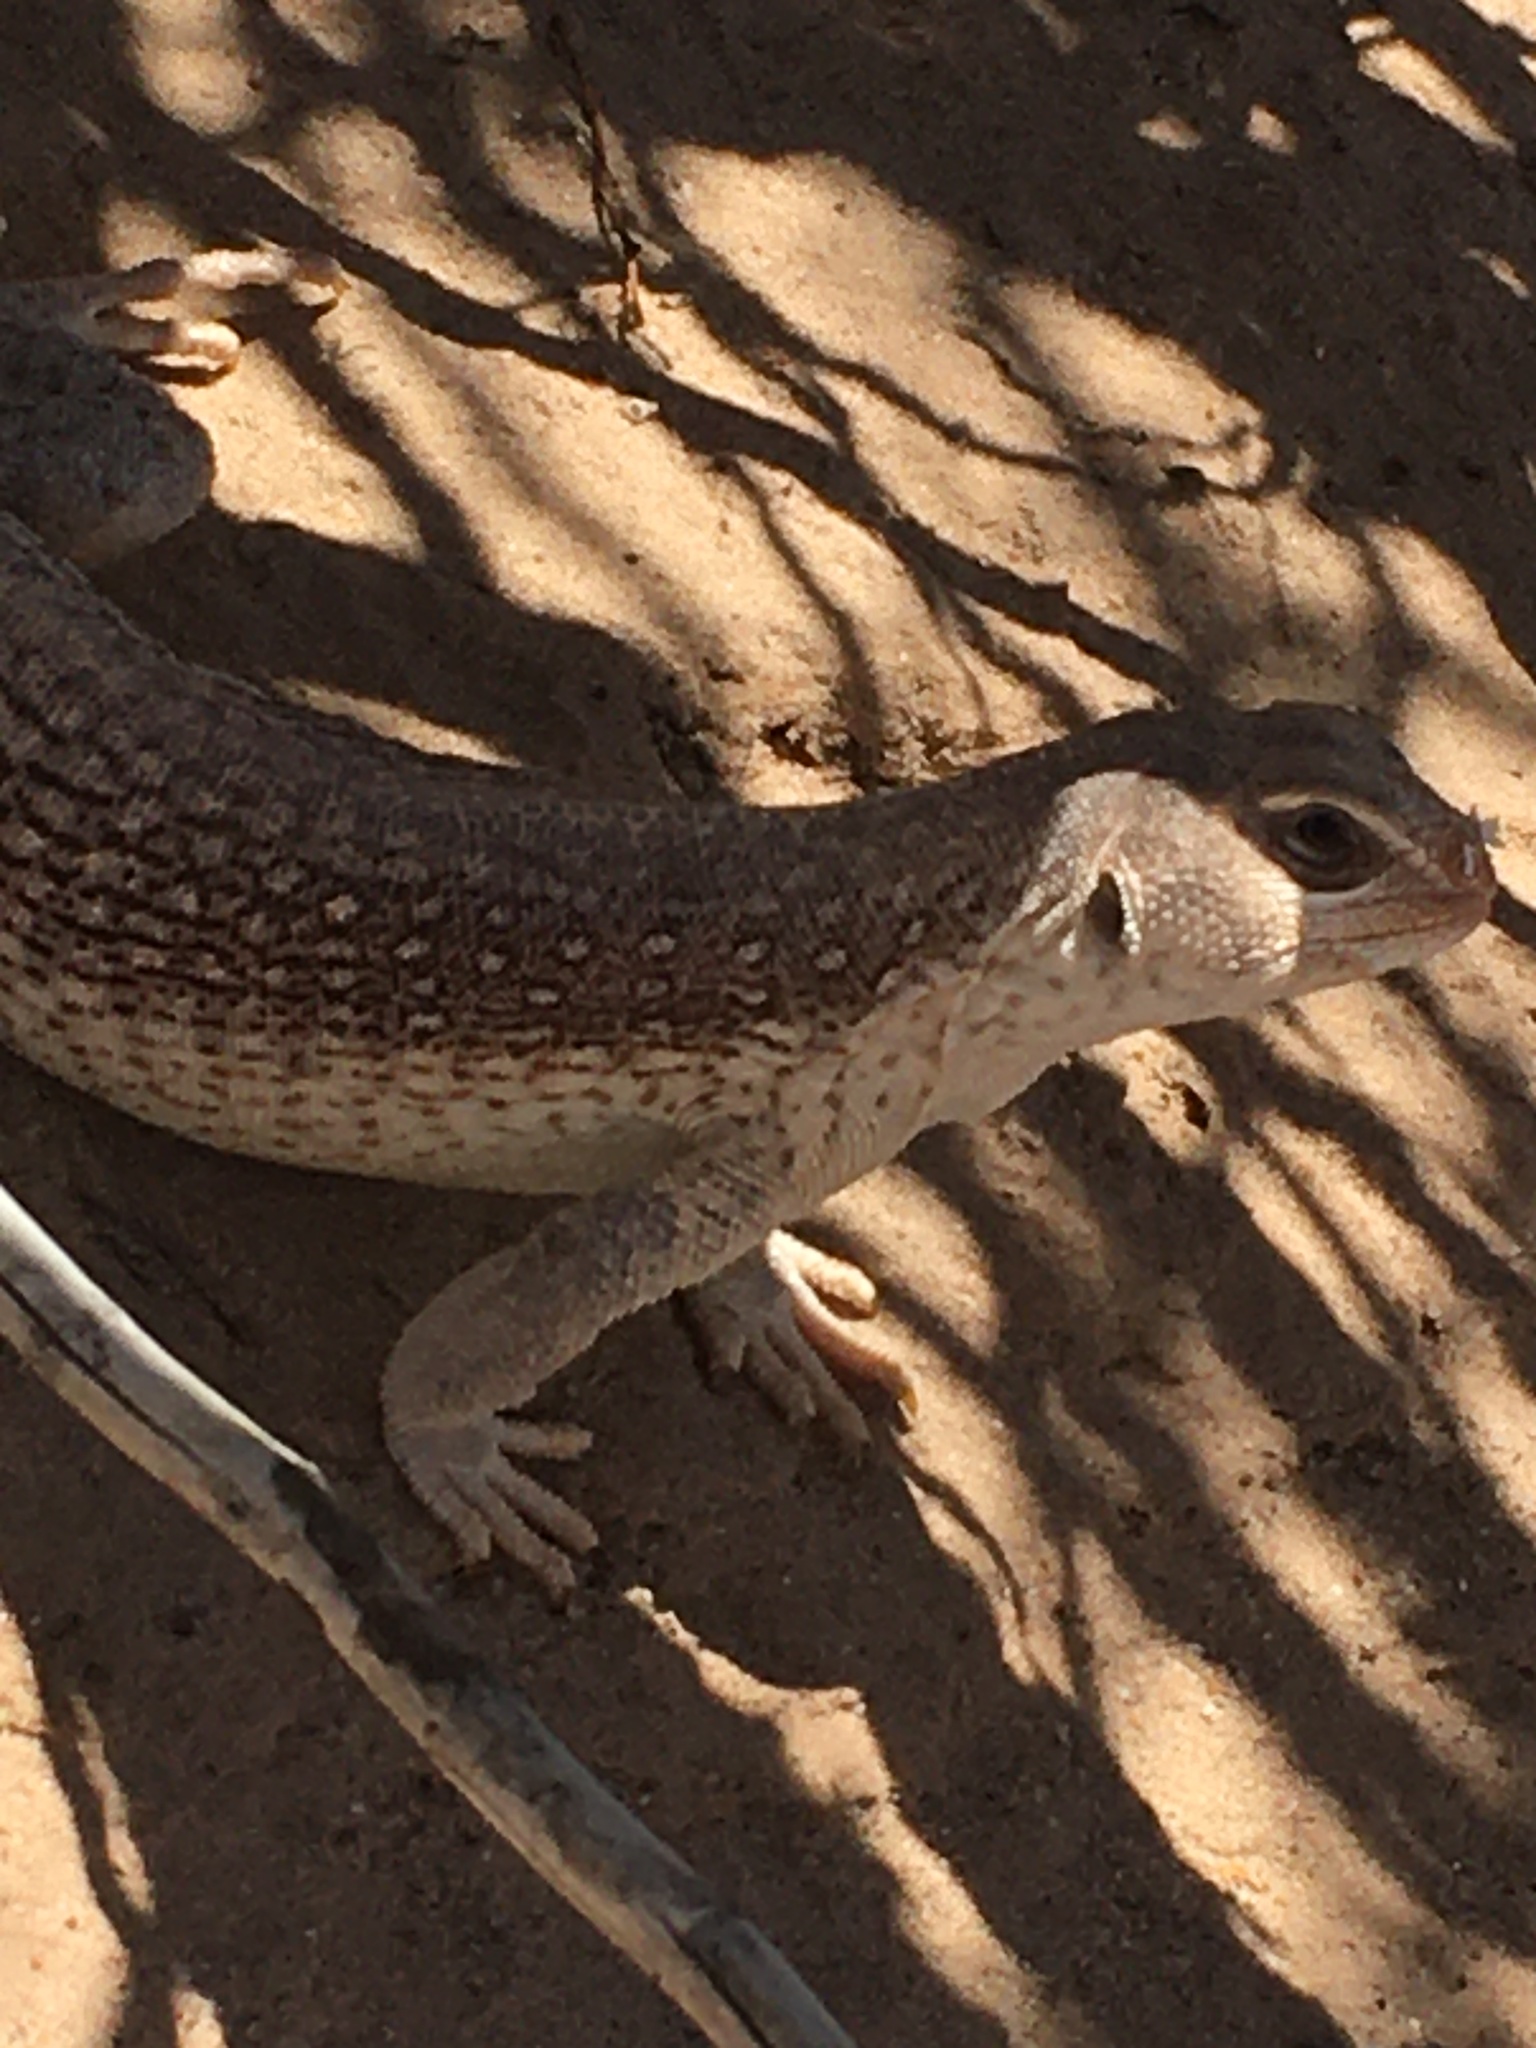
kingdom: Animalia
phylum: Chordata
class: Squamata
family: Iguanidae
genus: Dipsosaurus
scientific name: Dipsosaurus dorsalis
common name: Desert iguana
